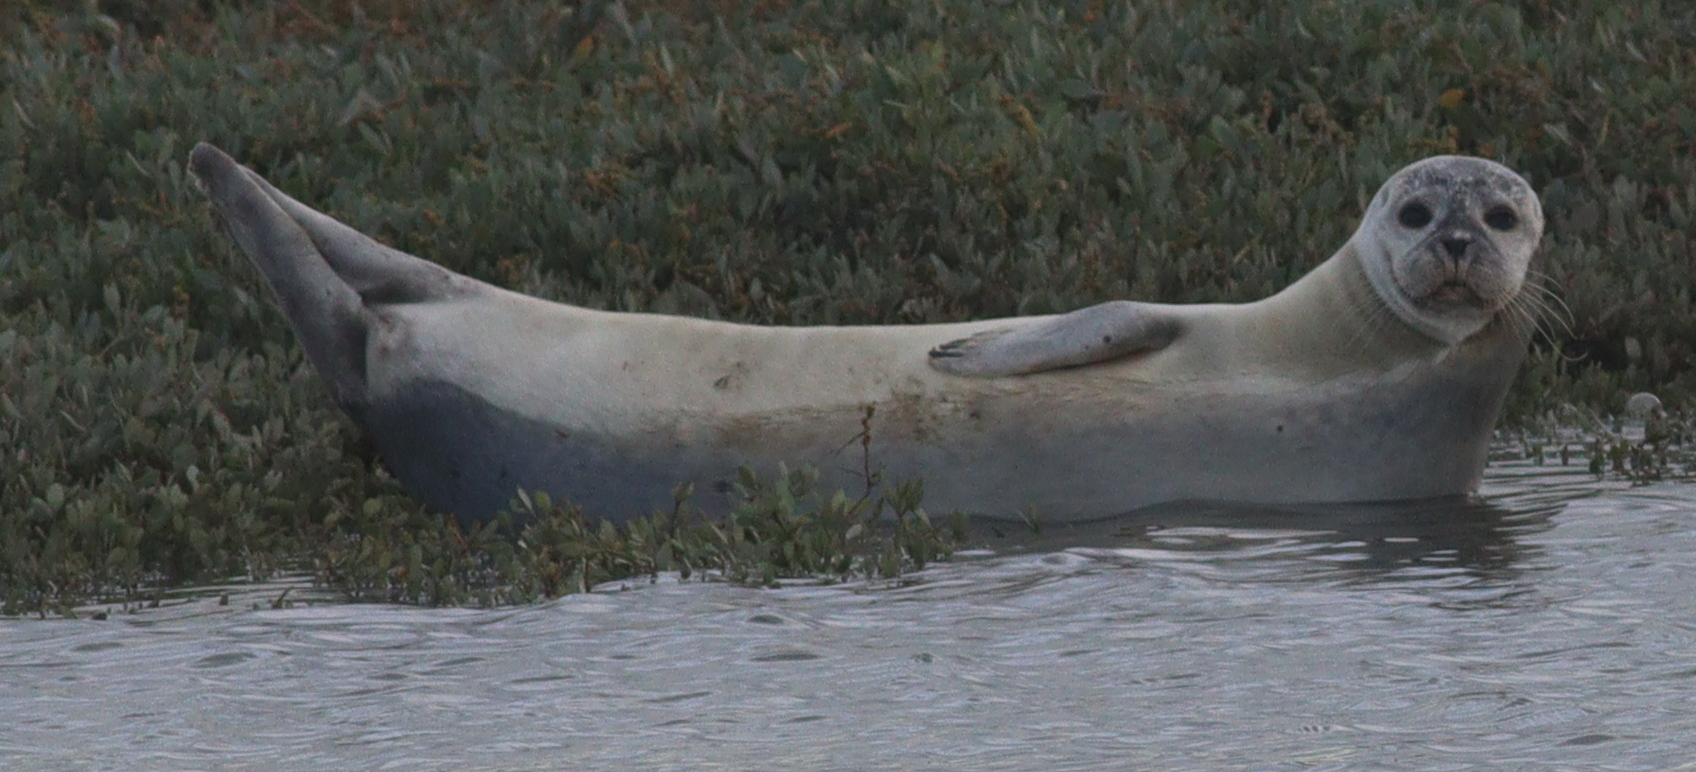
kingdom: Animalia
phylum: Chordata
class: Mammalia
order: Carnivora
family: Phocidae
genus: Phoca
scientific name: Phoca vitulina
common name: Harbor seal
